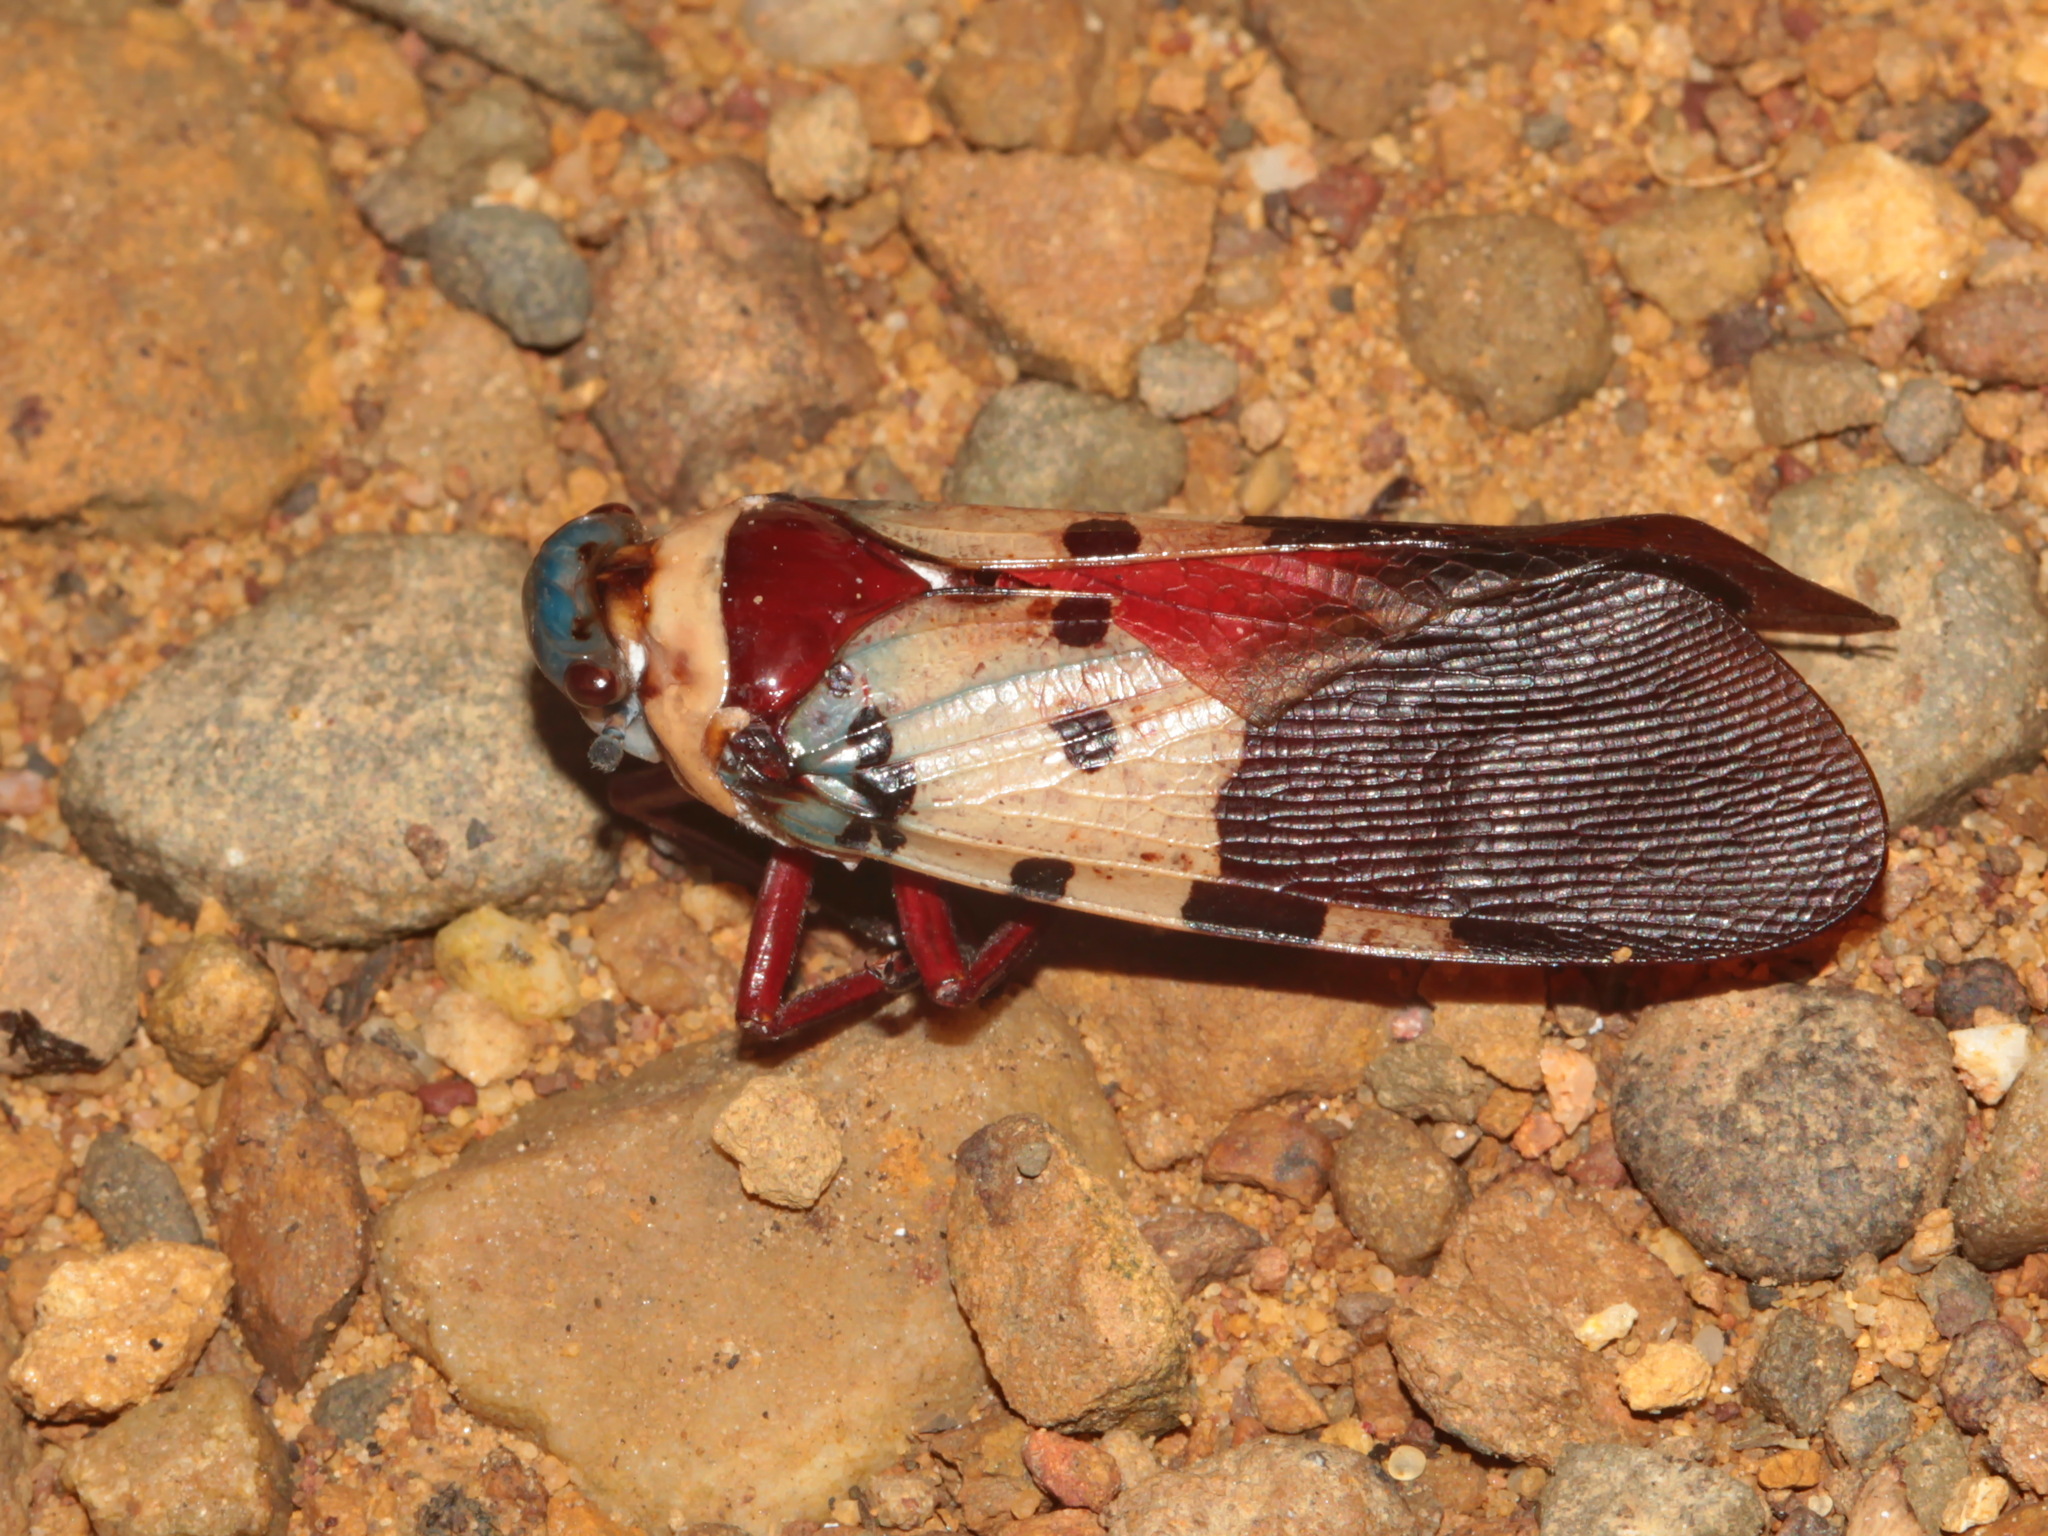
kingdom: Animalia
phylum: Arthropoda
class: Insecta
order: Hemiptera
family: Fulgoridae
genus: Polydictya
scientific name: Polydictya tricolor
